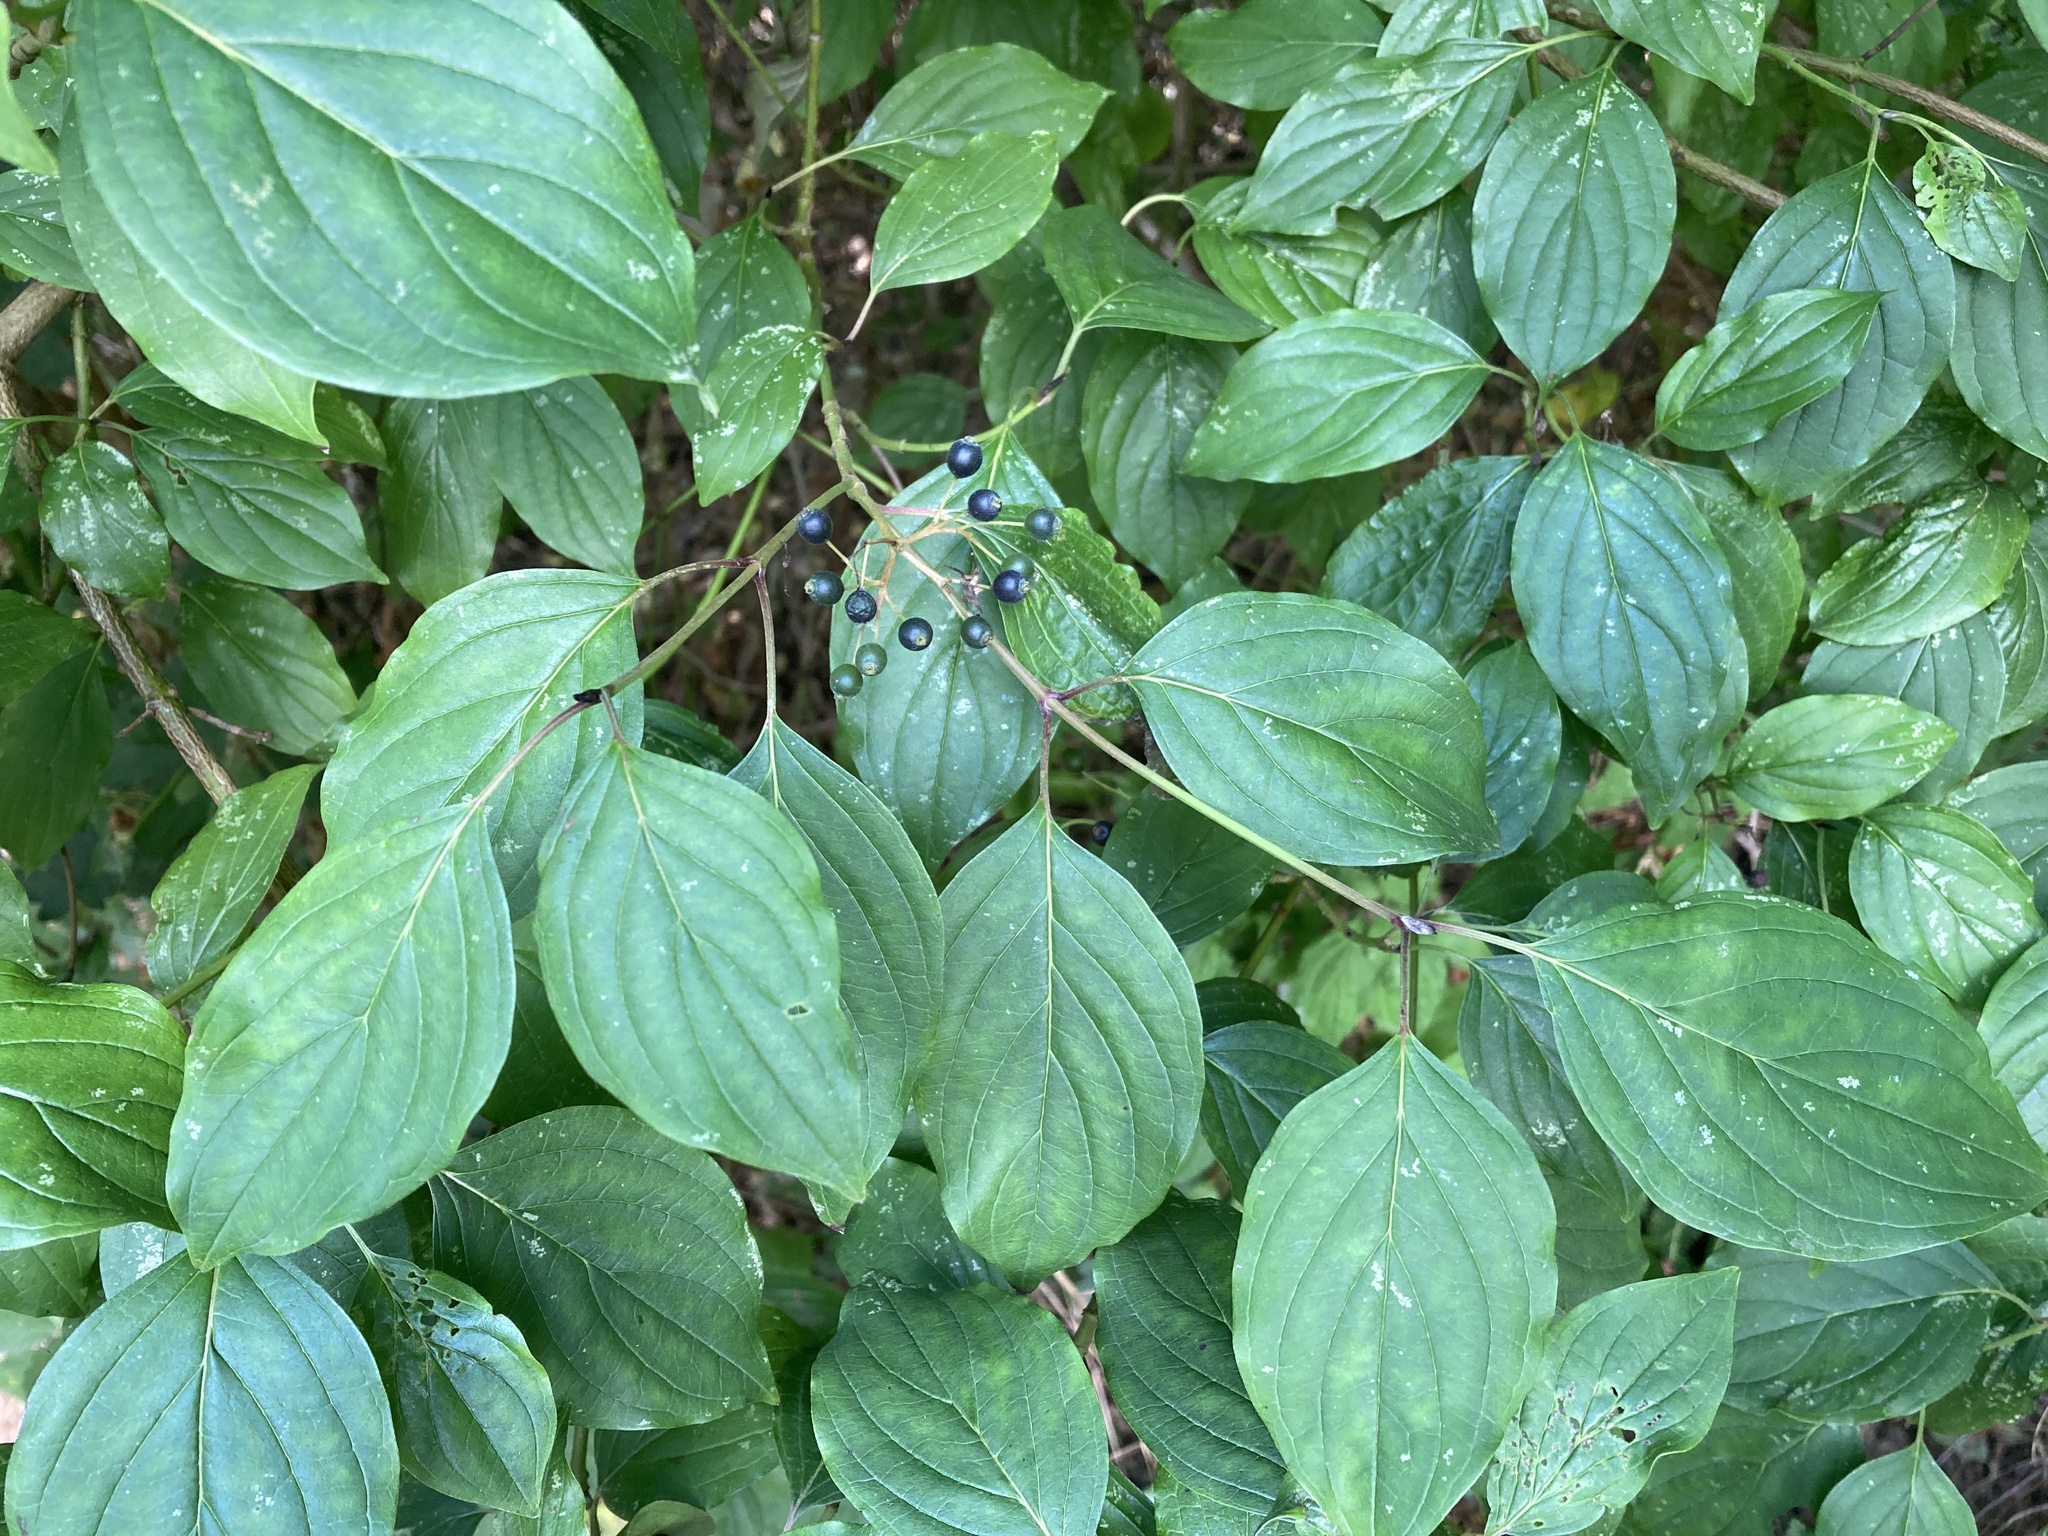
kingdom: Plantae
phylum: Tracheophyta
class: Magnoliopsida
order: Cornales
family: Cornaceae
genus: Cornus
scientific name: Cornus sanguinea
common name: Dogwood
